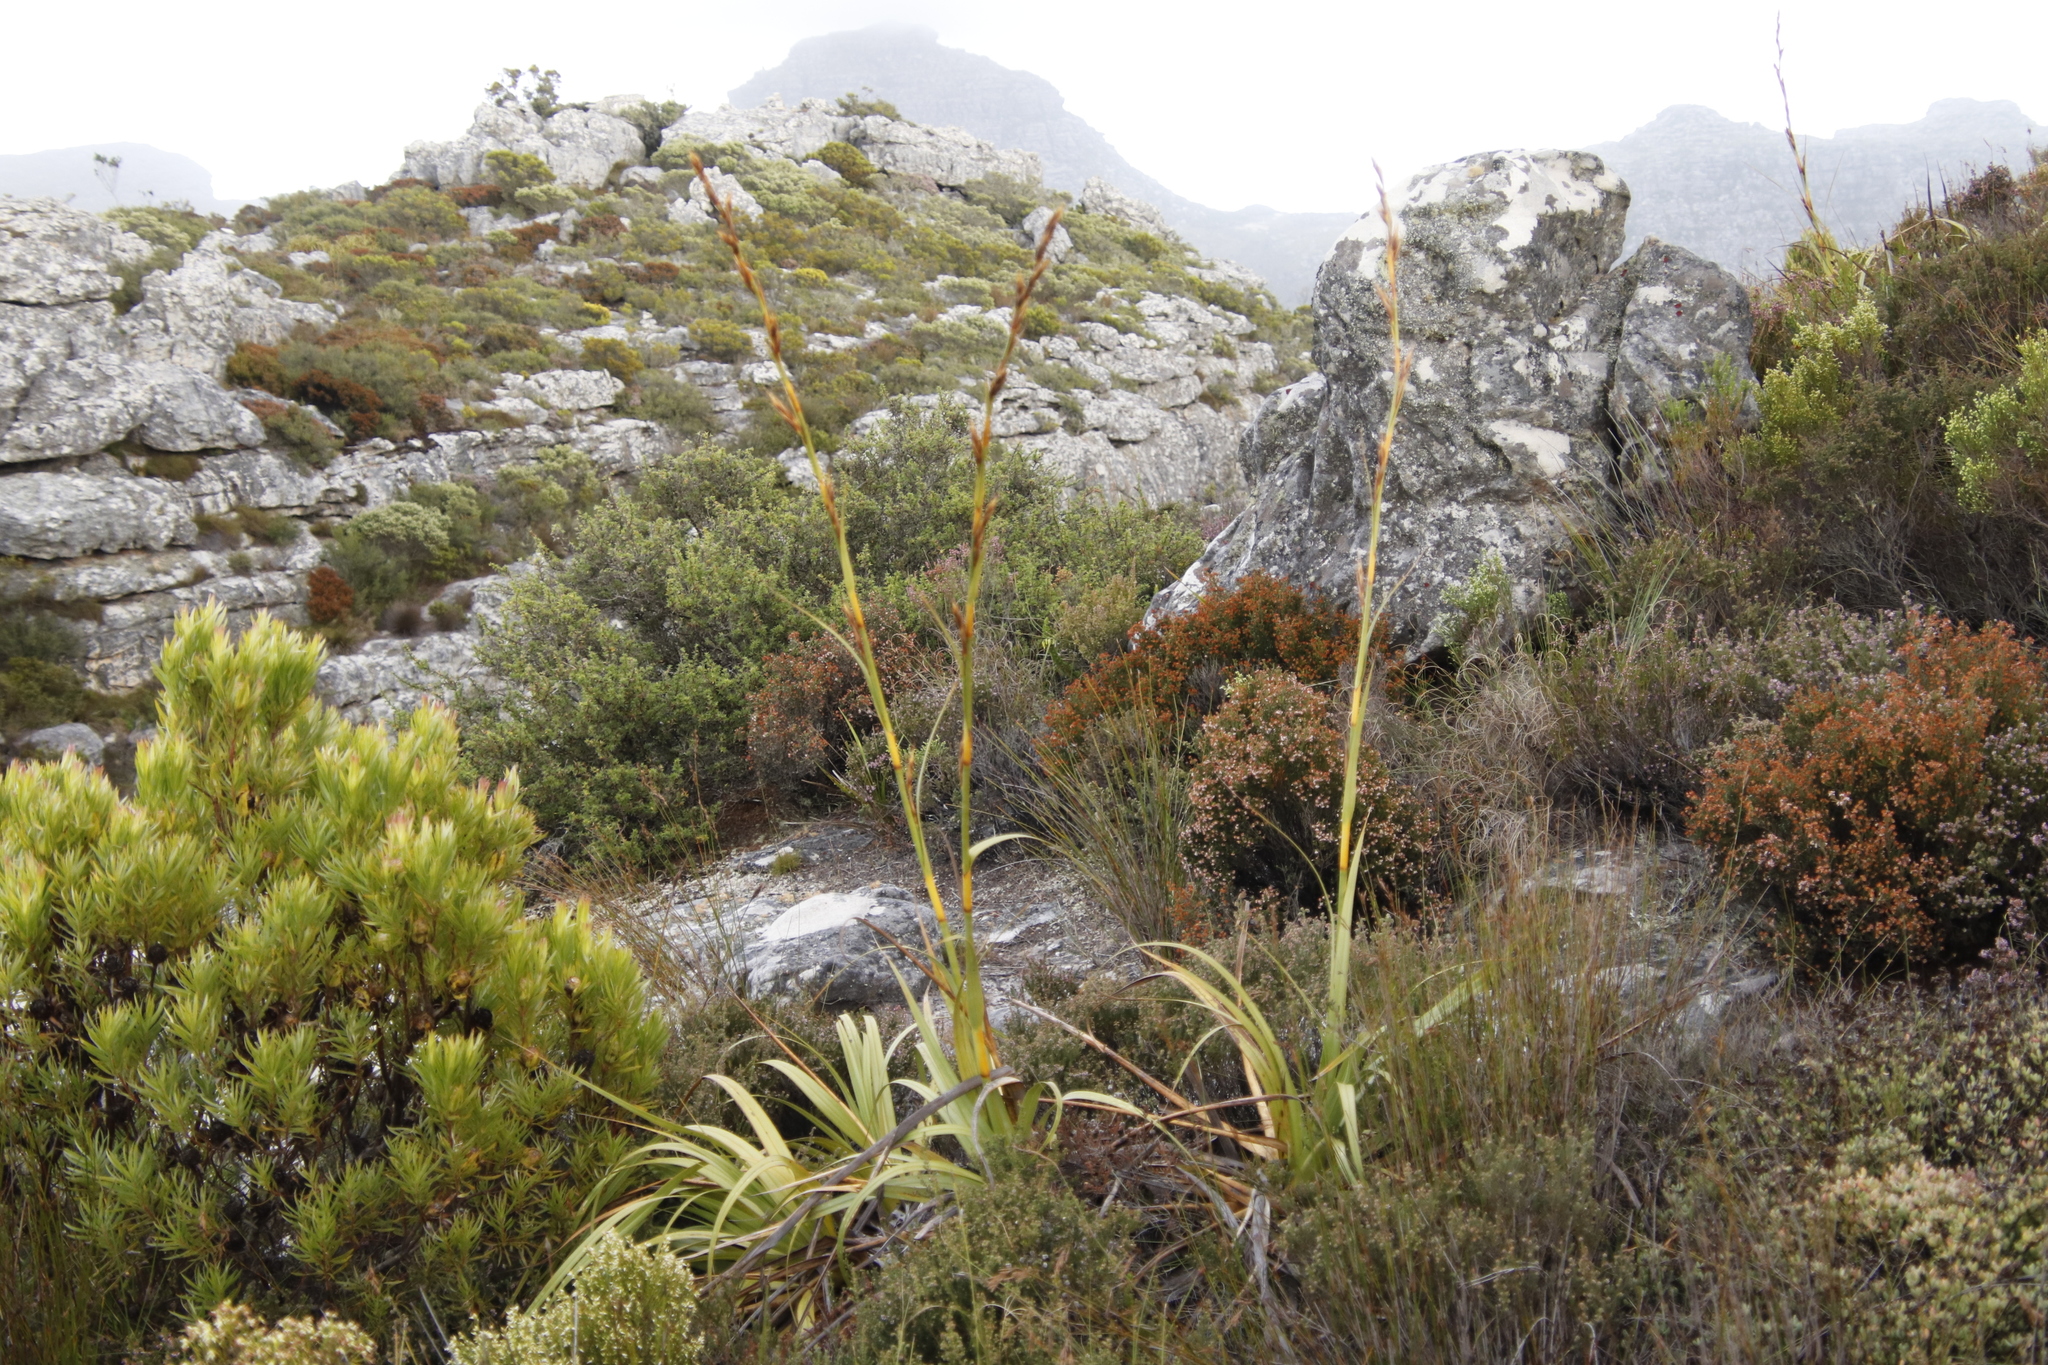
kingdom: Plantae
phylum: Tracheophyta
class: Liliopsida
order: Poales
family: Cyperaceae
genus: Tetraria
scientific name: Tetraria thermalis
